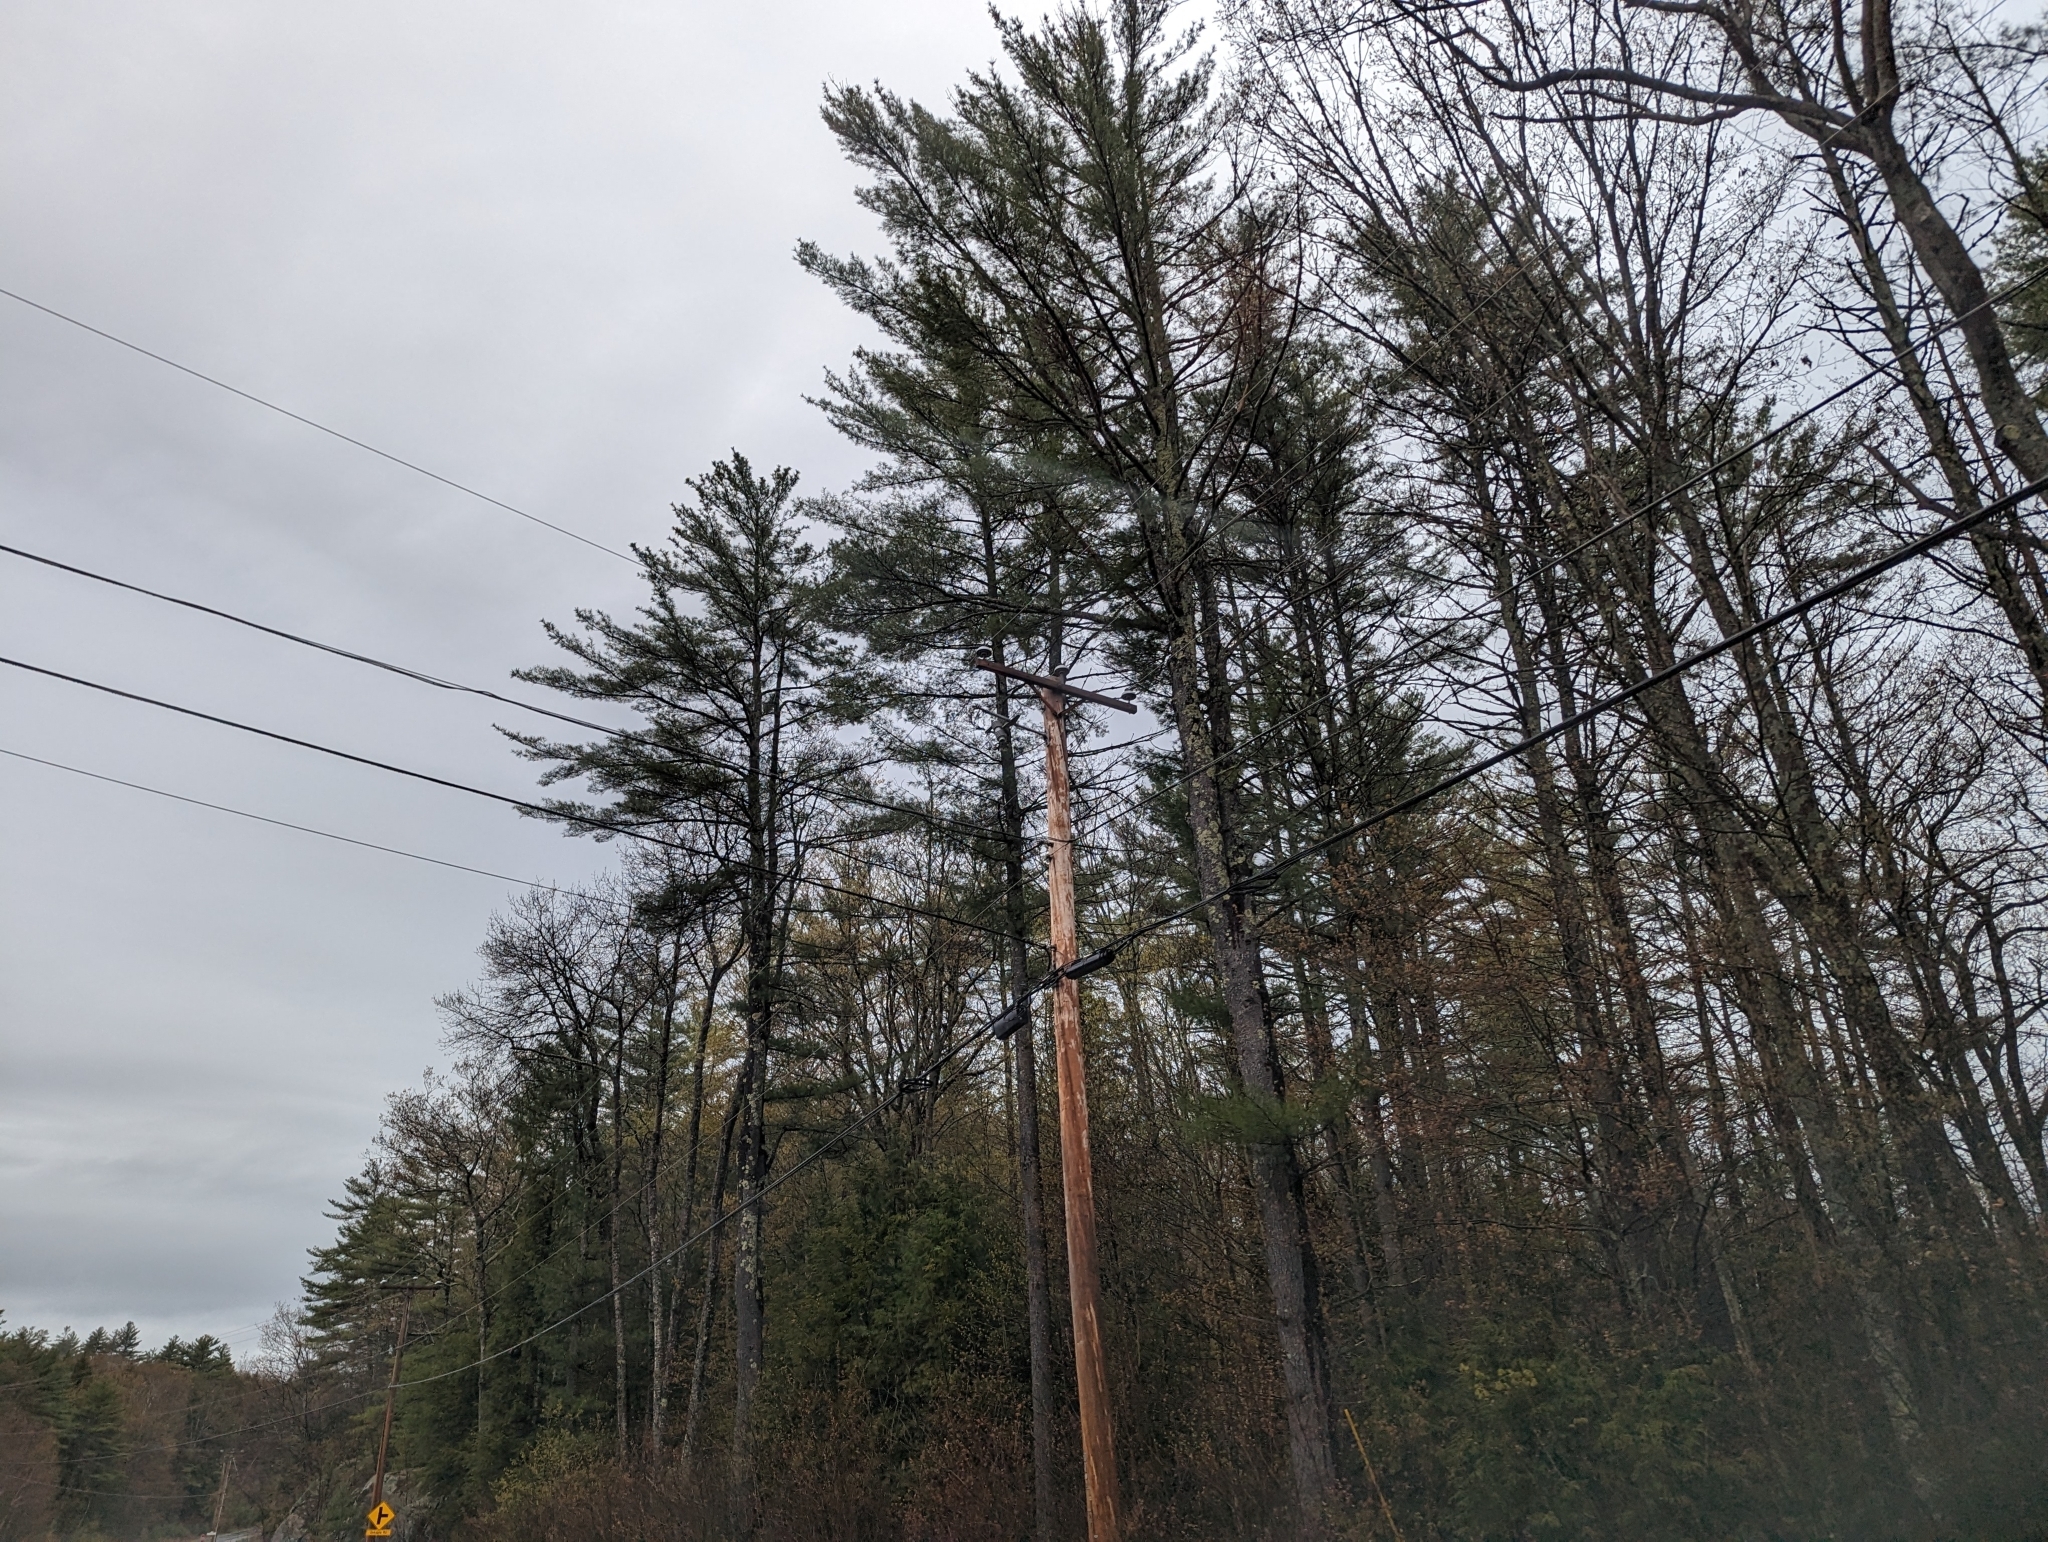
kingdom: Plantae
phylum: Tracheophyta
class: Pinopsida
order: Pinales
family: Pinaceae
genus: Pinus
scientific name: Pinus strobus
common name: Weymouth pine
